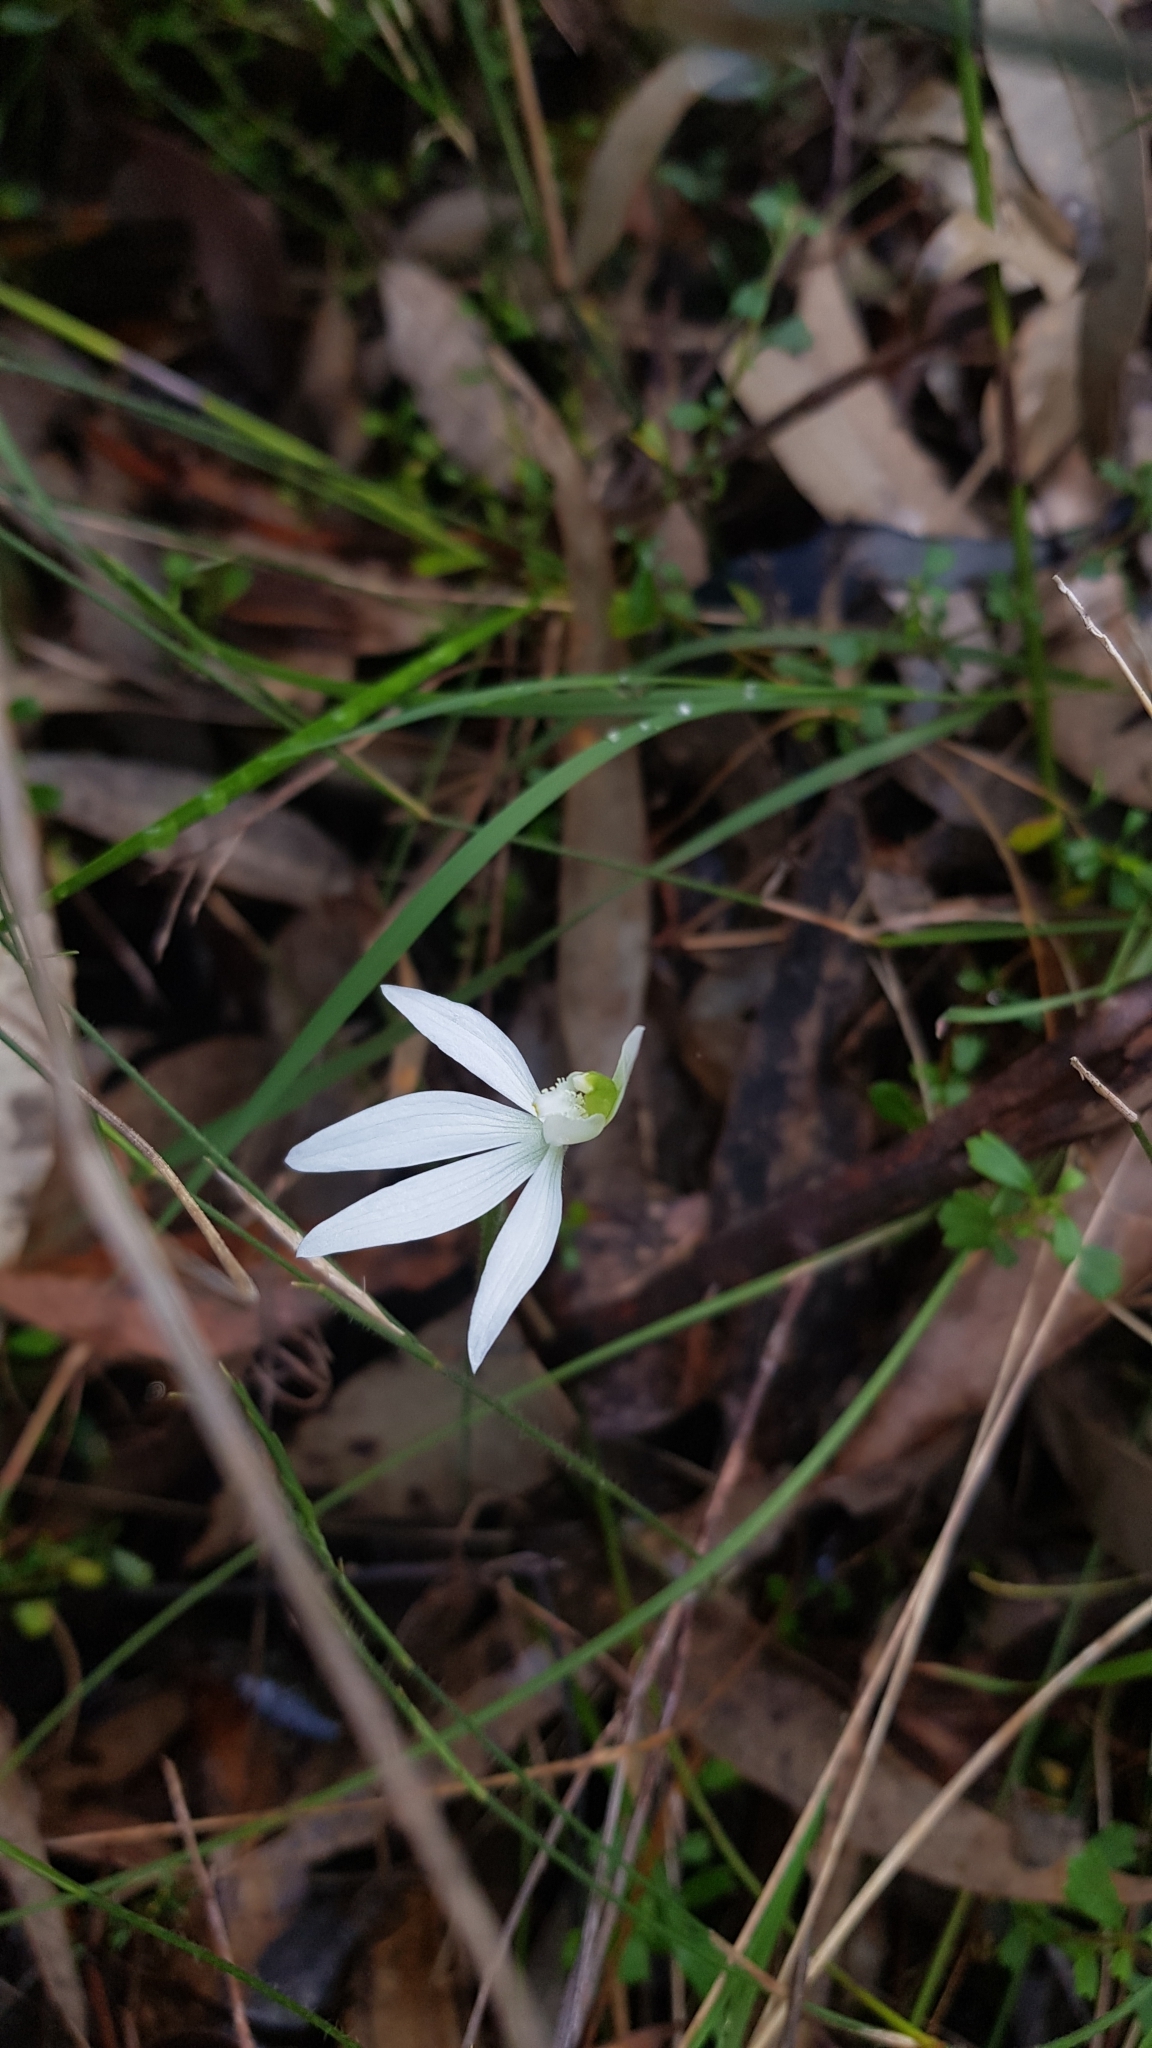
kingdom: Plantae
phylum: Tracheophyta
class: Liliopsida
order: Asparagales
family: Orchidaceae
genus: Caladenia
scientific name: Caladenia catenata
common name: White caladenia
